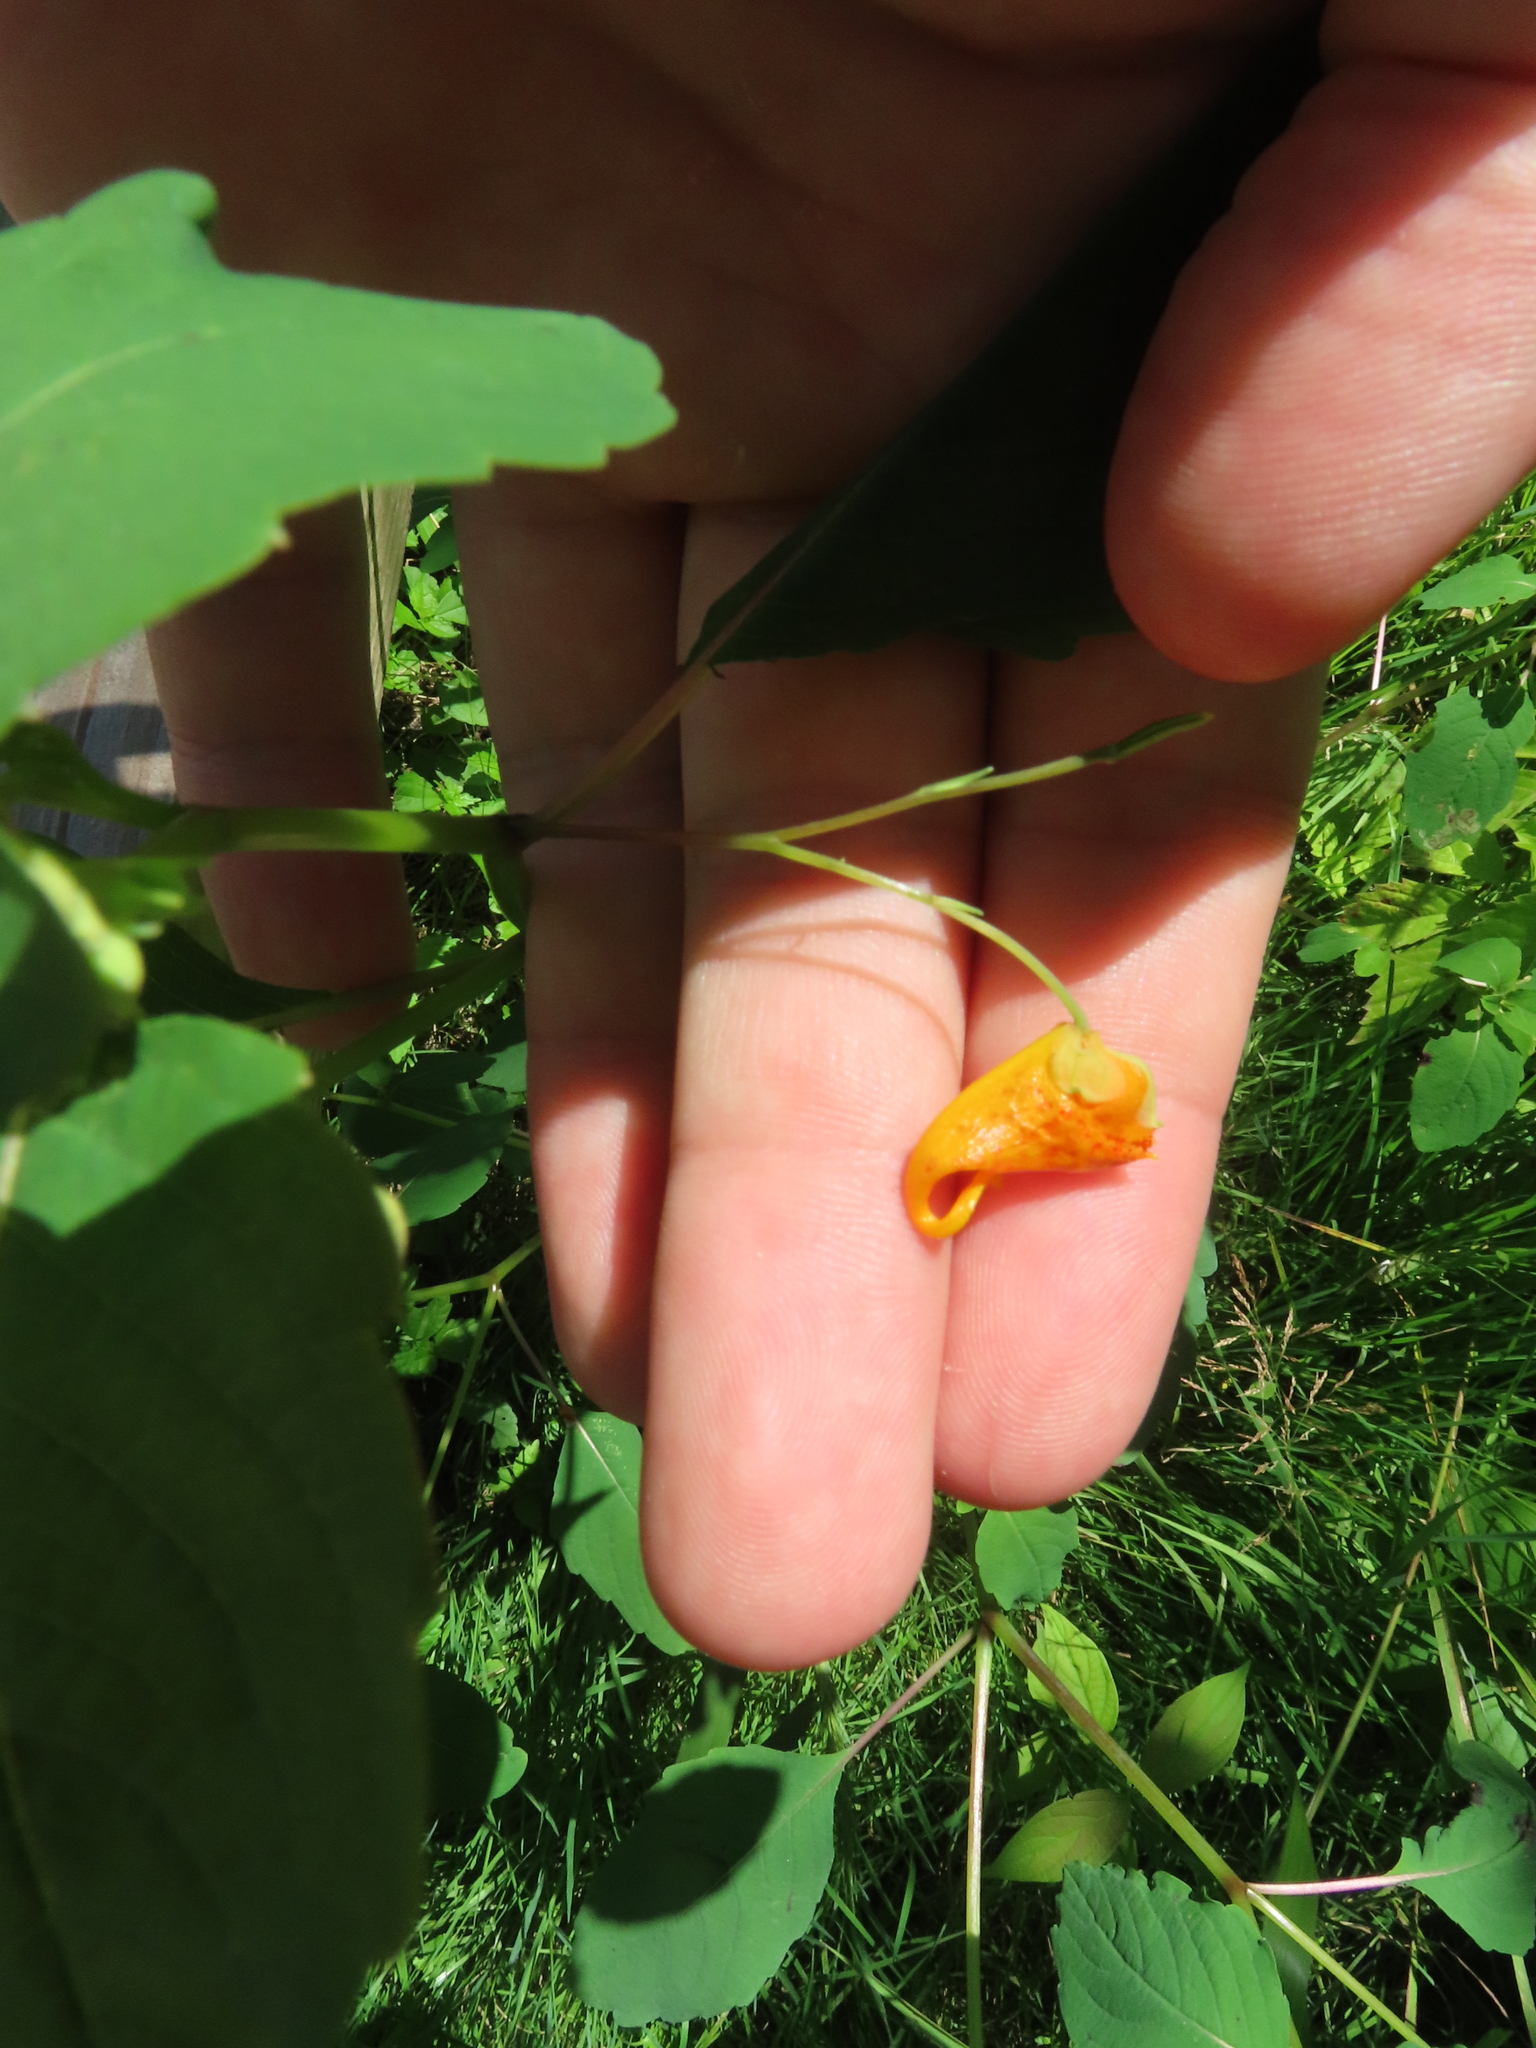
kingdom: Plantae
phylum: Tracheophyta
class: Magnoliopsida
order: Ericales
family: Balsaminaceae
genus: Impatiens
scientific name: Impatiens capensis
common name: Orange balsam
